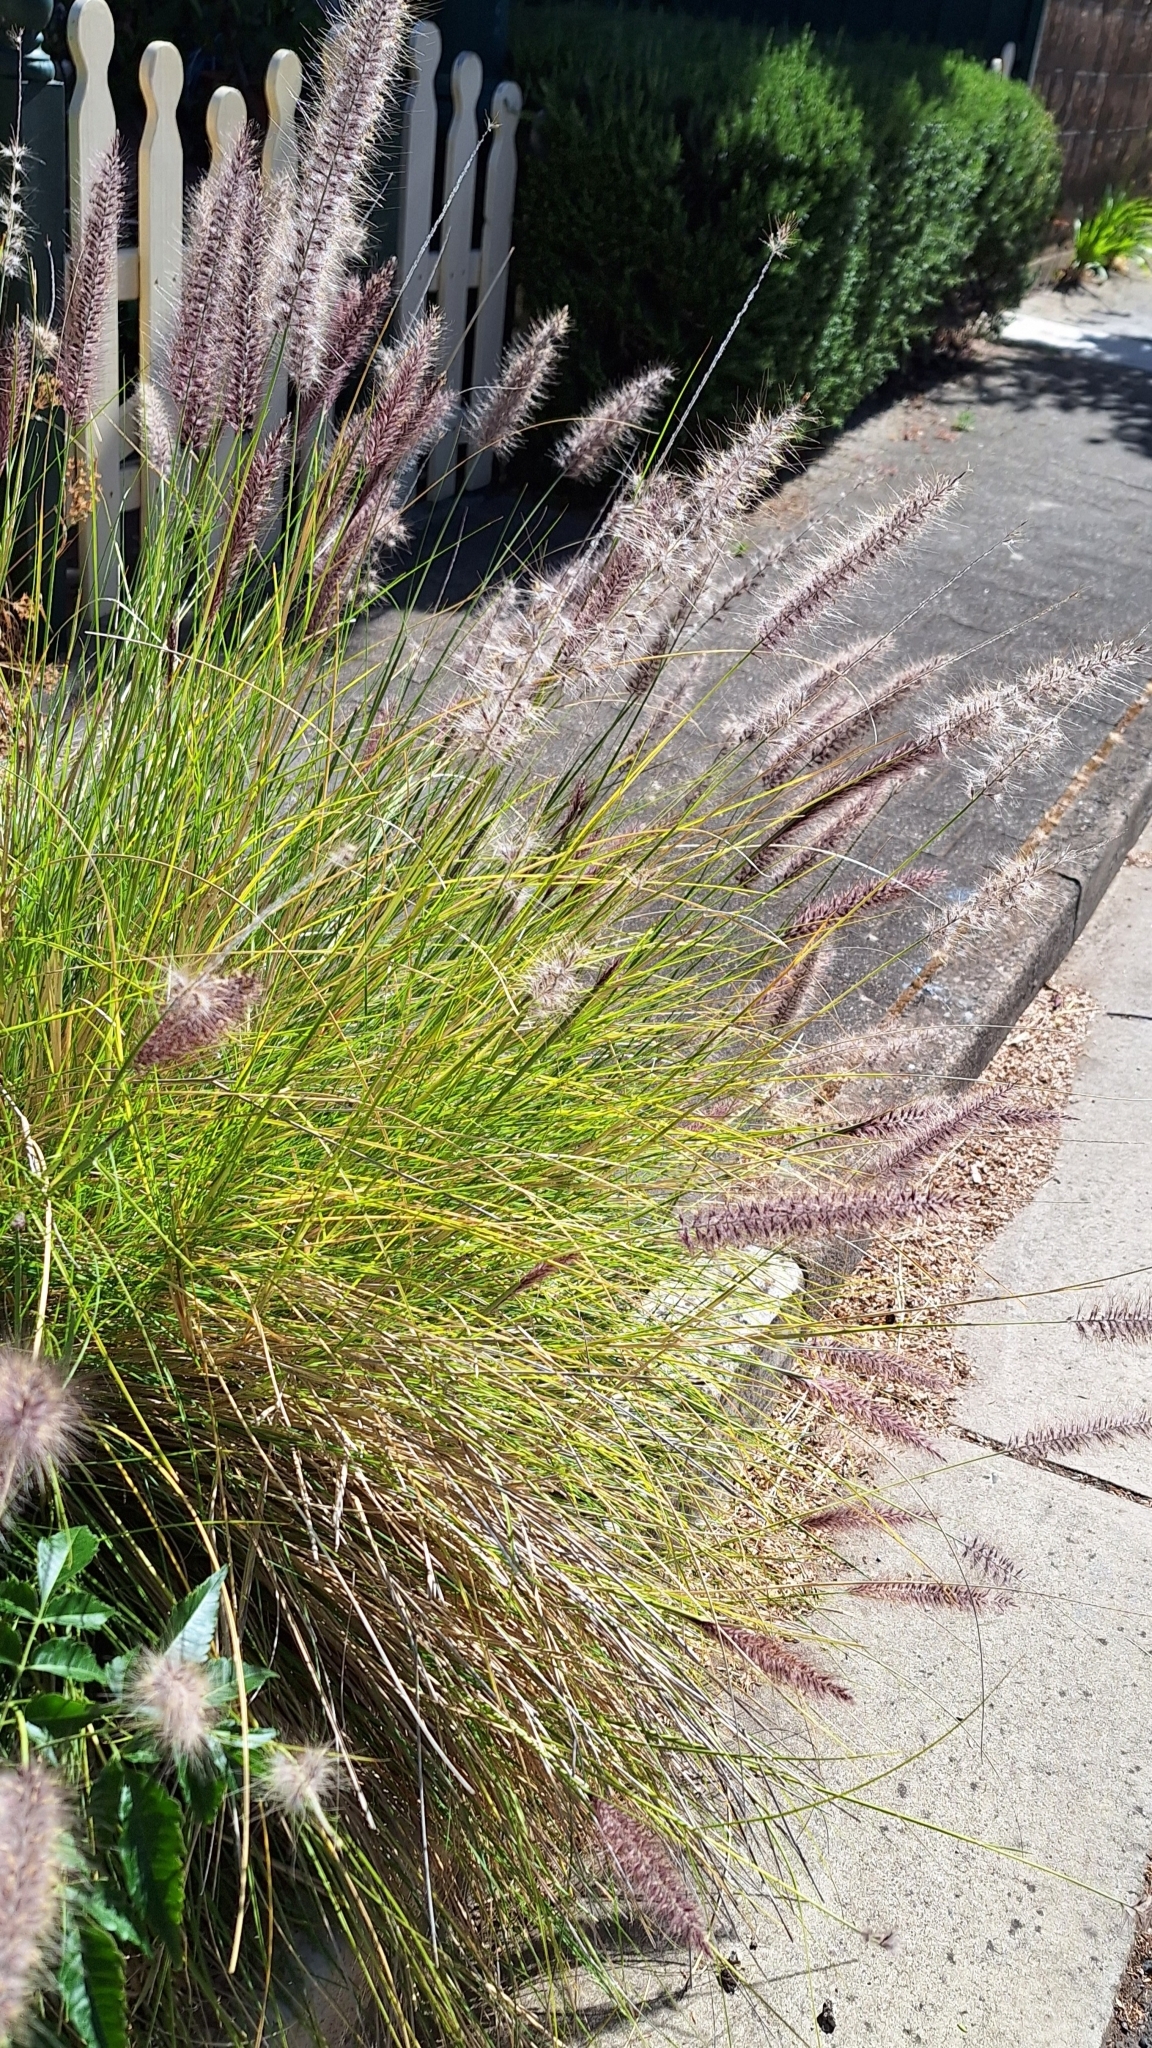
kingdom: Plantae
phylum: Tracheophyta
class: Liliopsida
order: Poales
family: Poaceae
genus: Cenchrus
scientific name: Cenchrus setaceus
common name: Crimson fountaingrass
